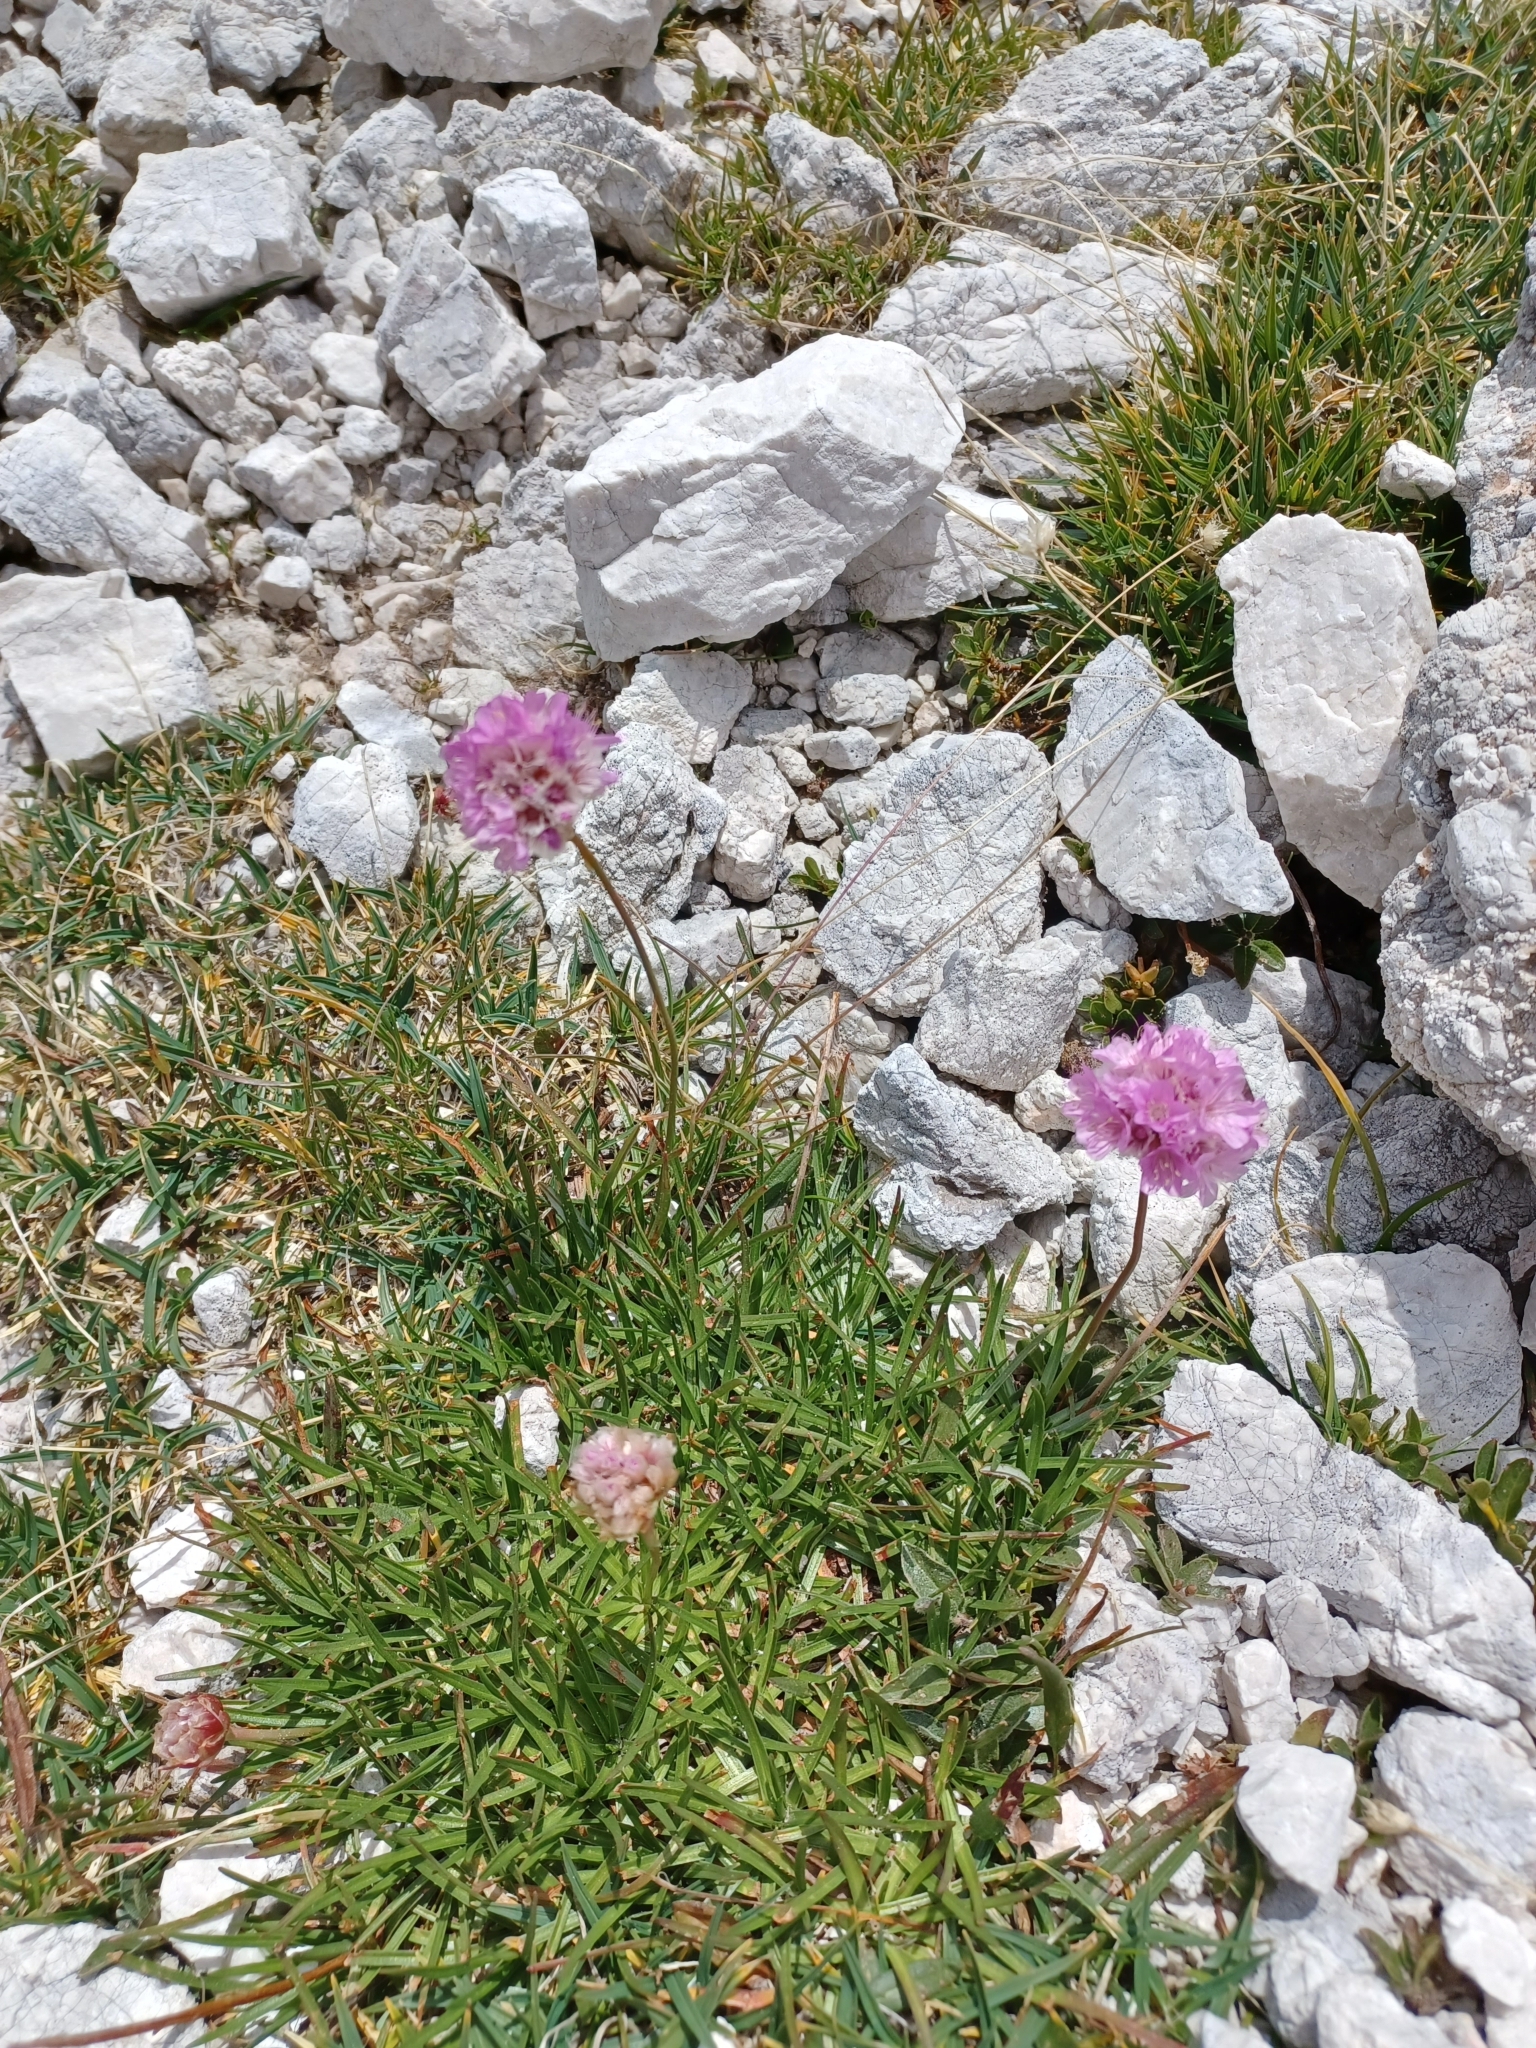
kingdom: Plantae
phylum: Tracheophyta
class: Magnoliopsida
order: Caryophyllales
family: Plumbaginaceae
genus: Armeria
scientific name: Armeria alpina
